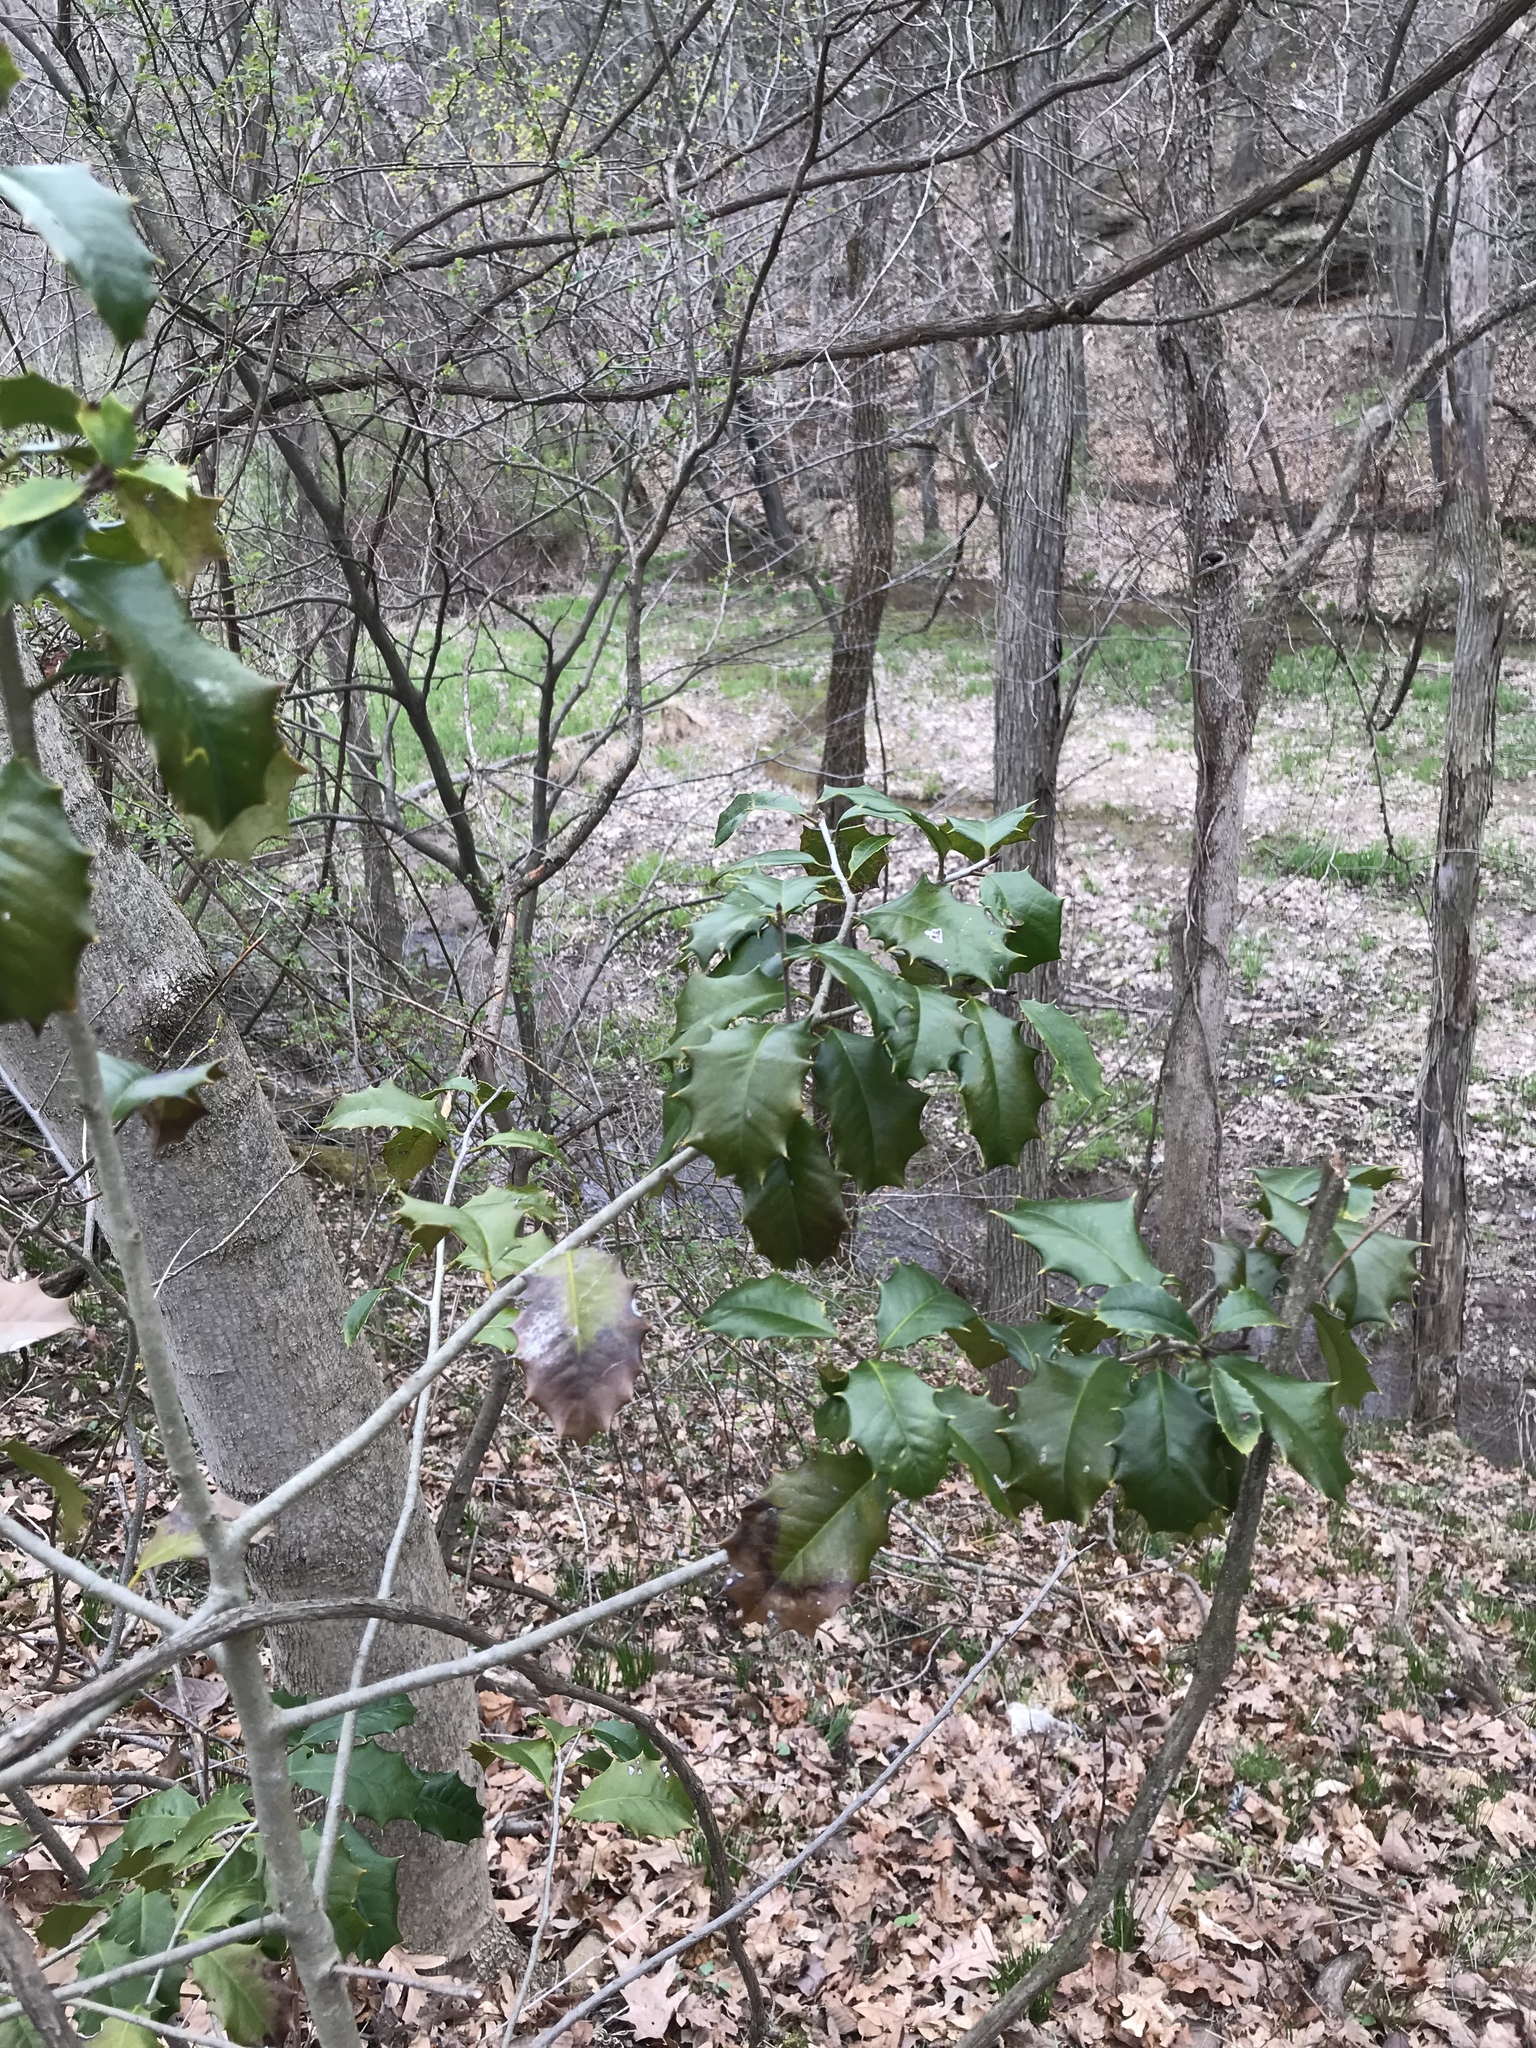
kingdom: Plantae
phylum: Tracheophyta
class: Magnoliopsida
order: Aquifoliales
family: Aquifoliaceae
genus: Ilex
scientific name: Ilex opaca
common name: American holly
